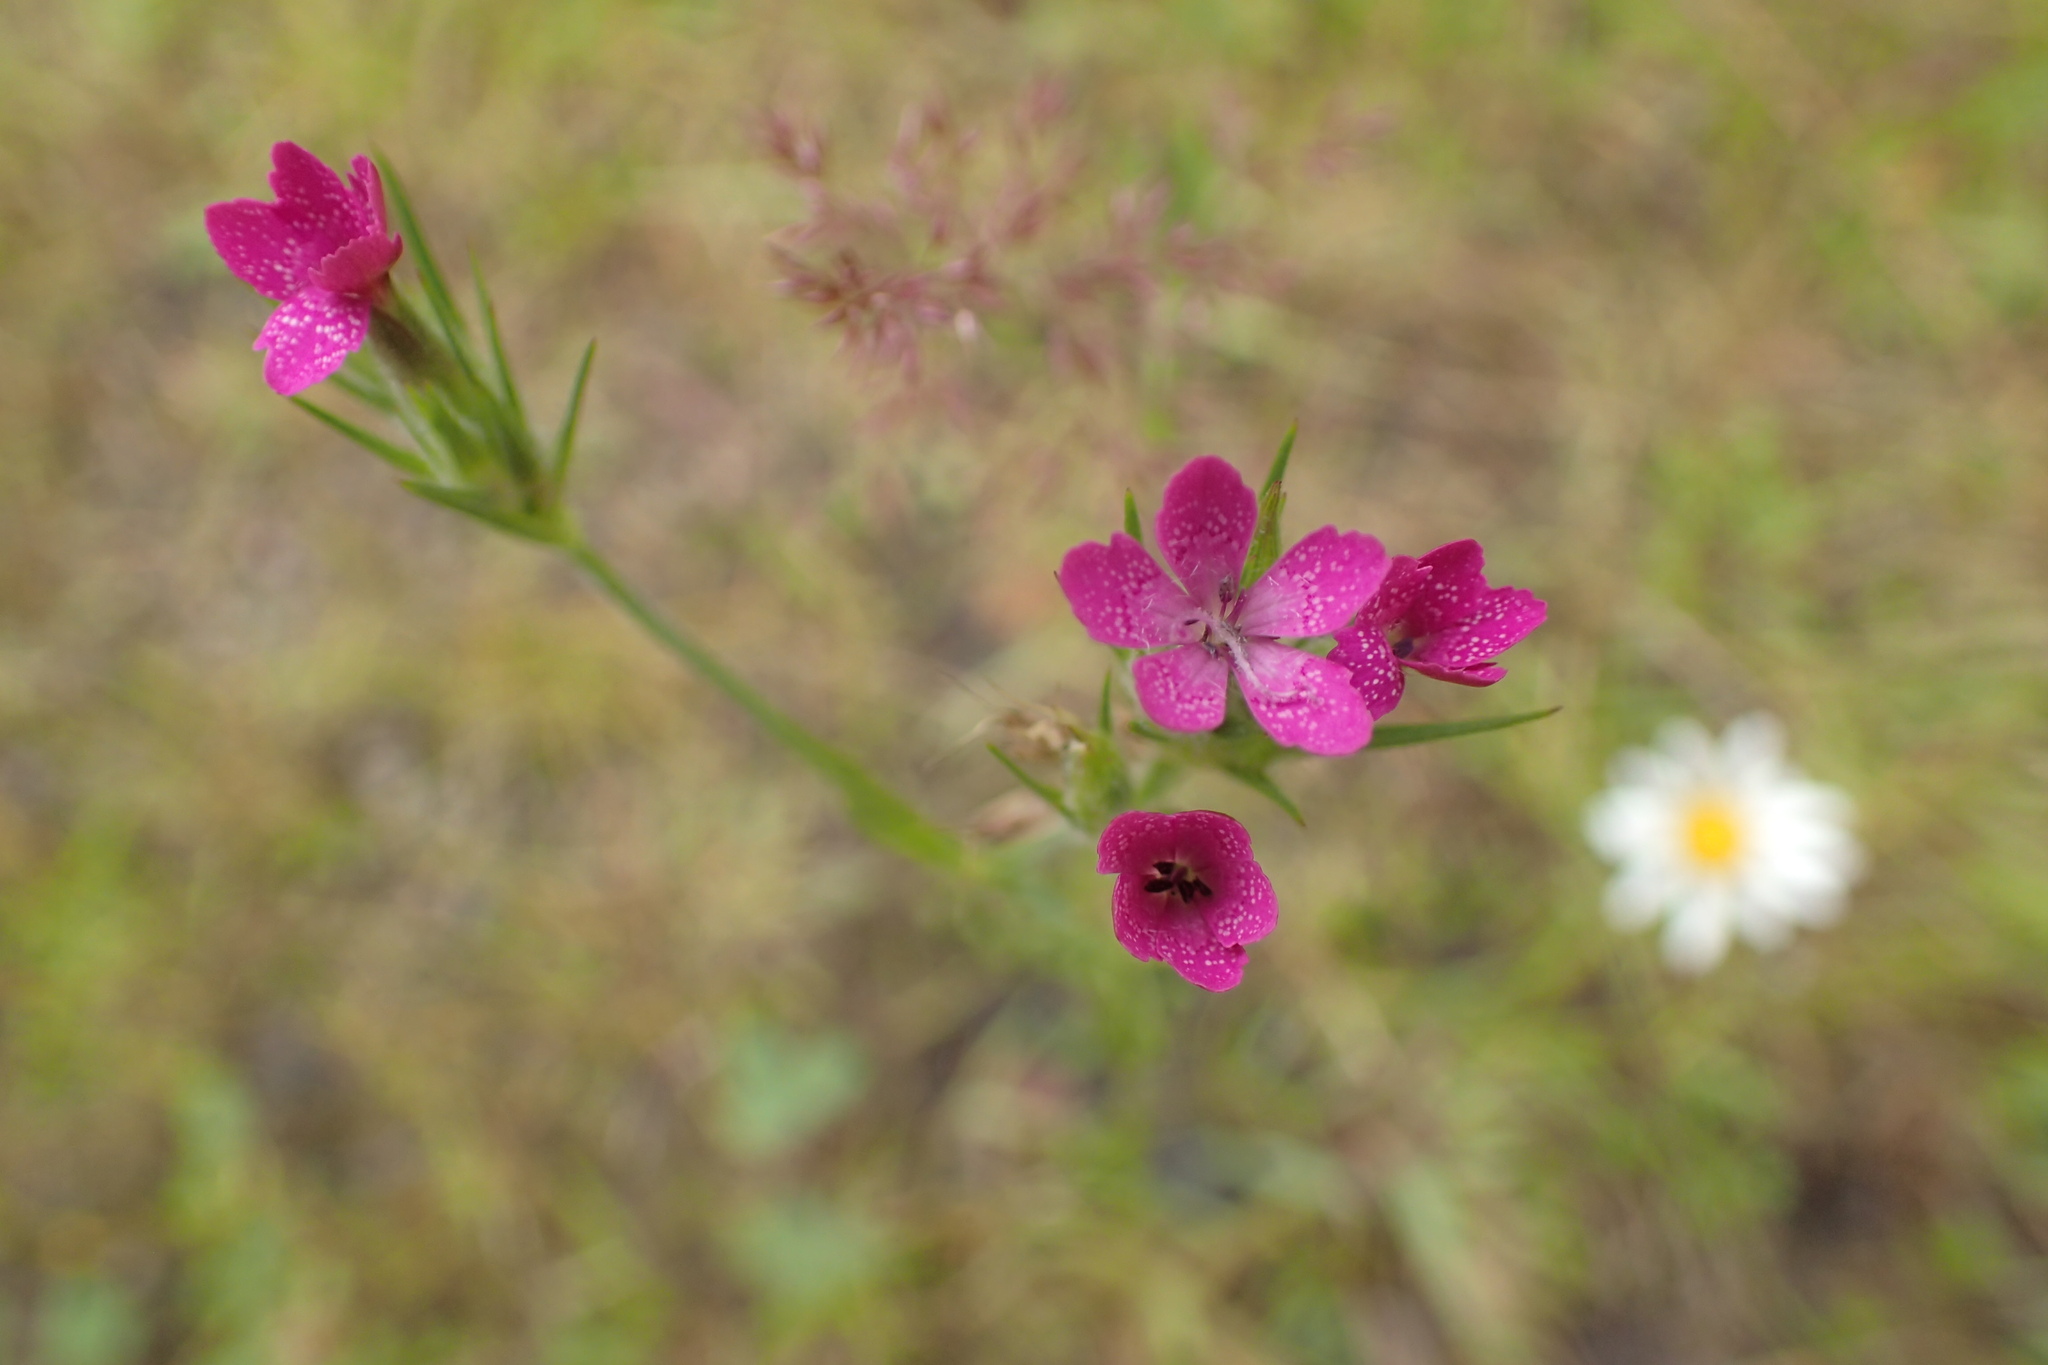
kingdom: Plantae
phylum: Tracheophyta
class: Magnoliopsida
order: Caryophyllales
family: Caryophyllaceae
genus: Dianthus
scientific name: Dianthus armeria
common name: Deptford pink
